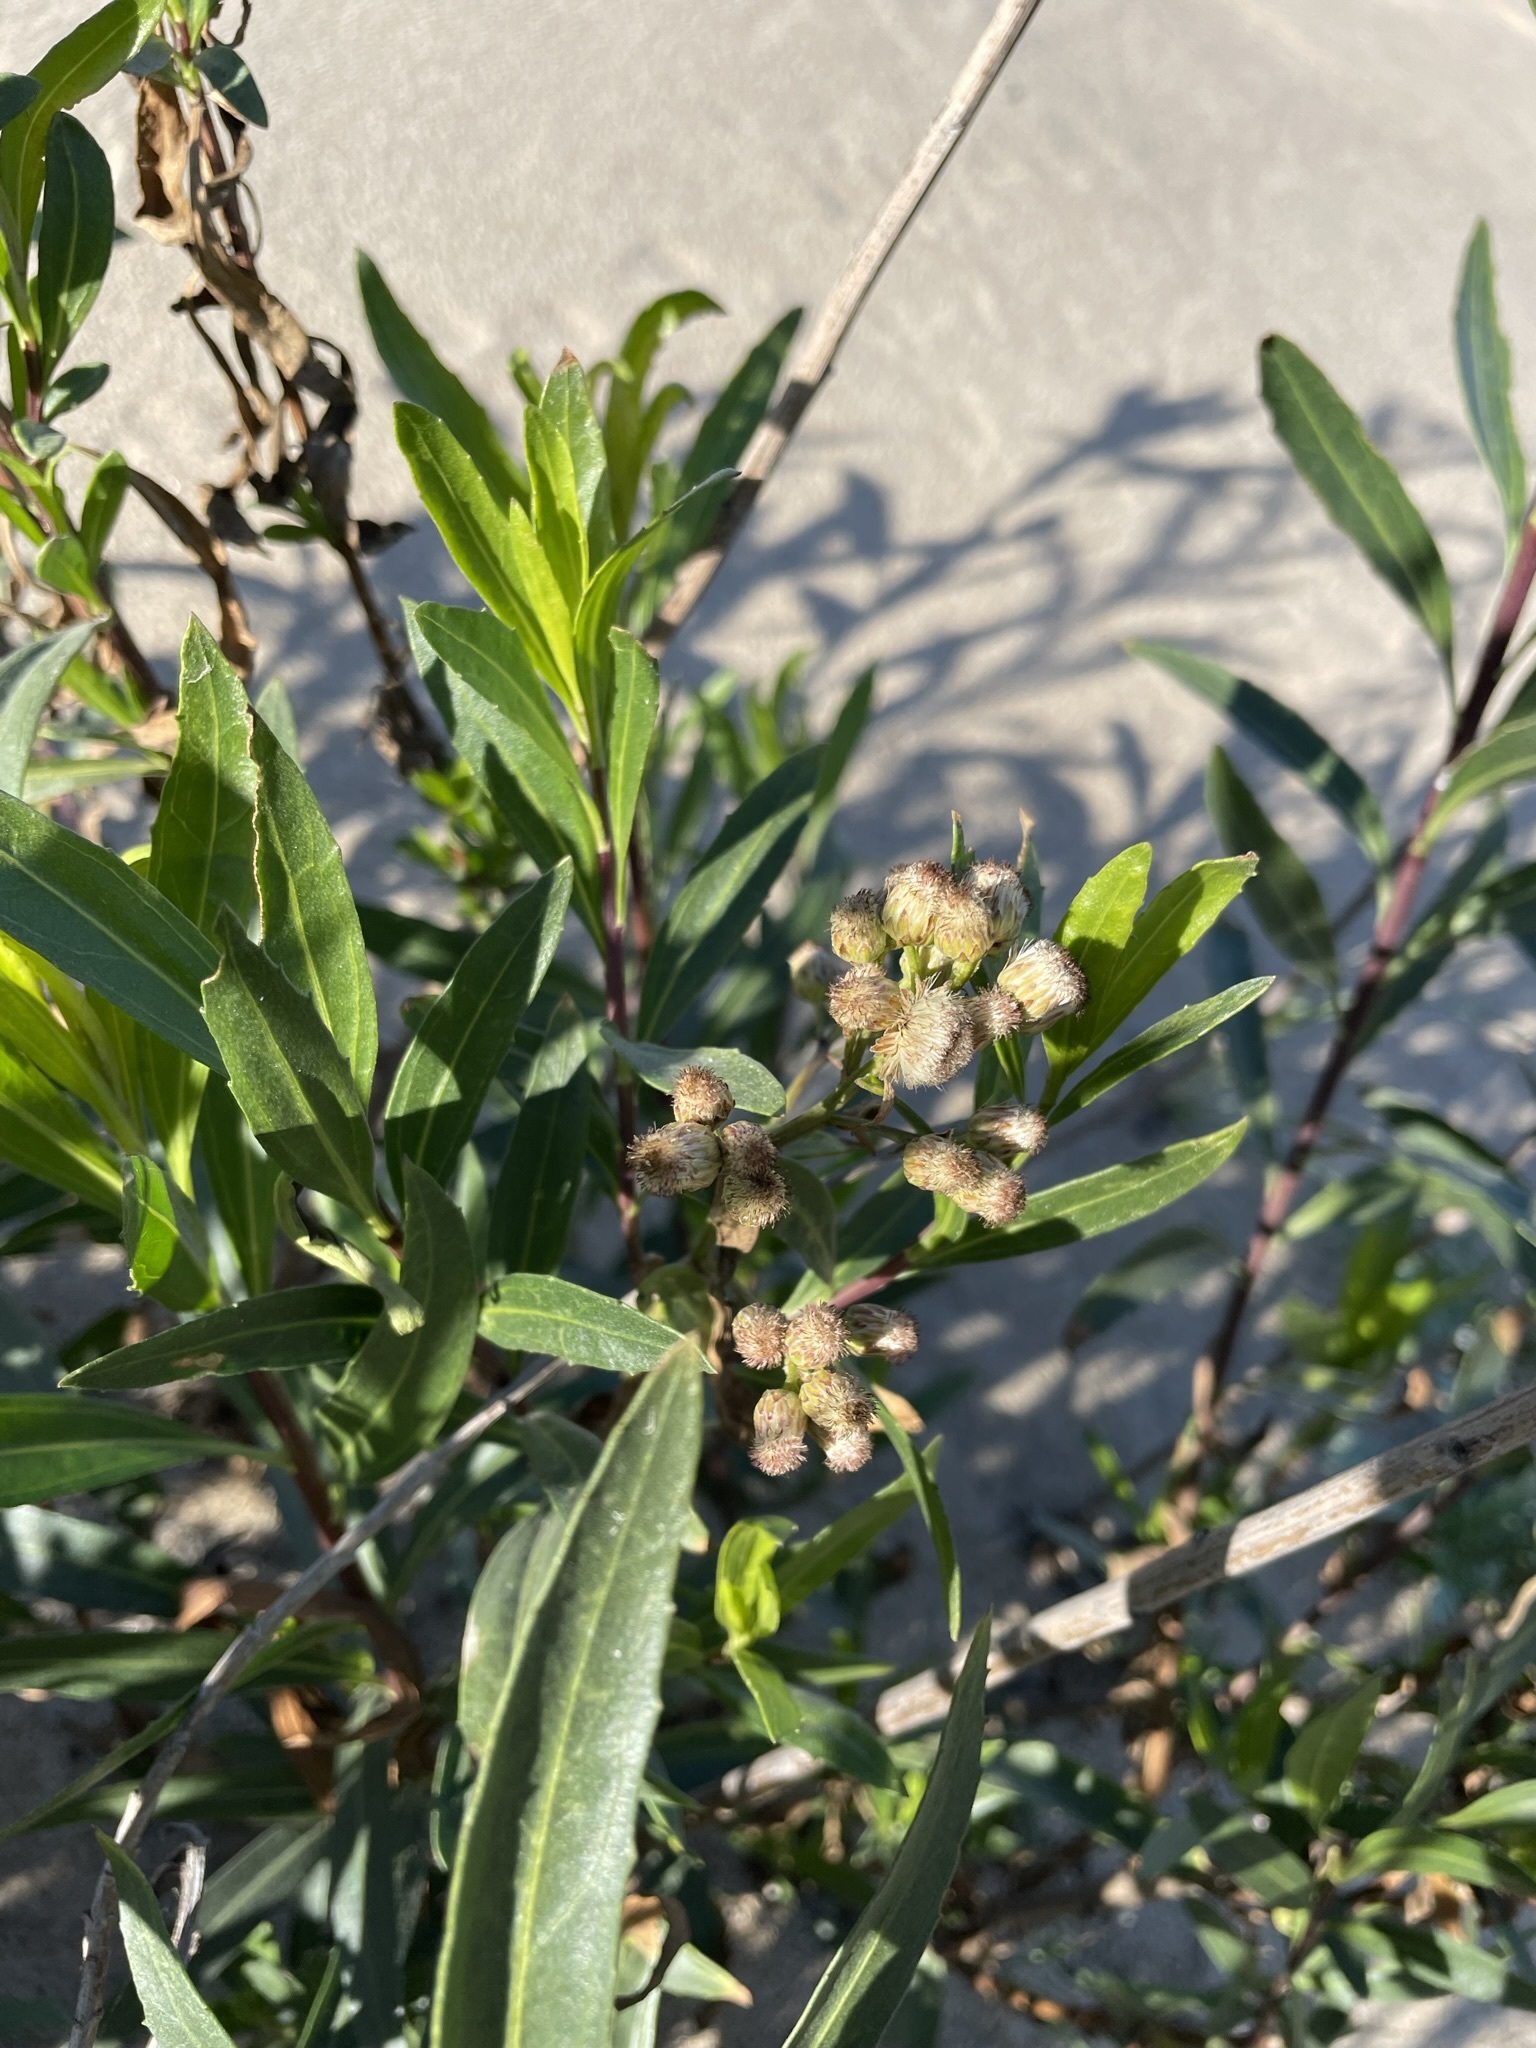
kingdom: Plantae
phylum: Tracheophyta
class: Magnoliopsida
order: Asterales
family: Asteraceae
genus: Baccharis
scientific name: Baccharis salicifolia
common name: Sticky baccharis
